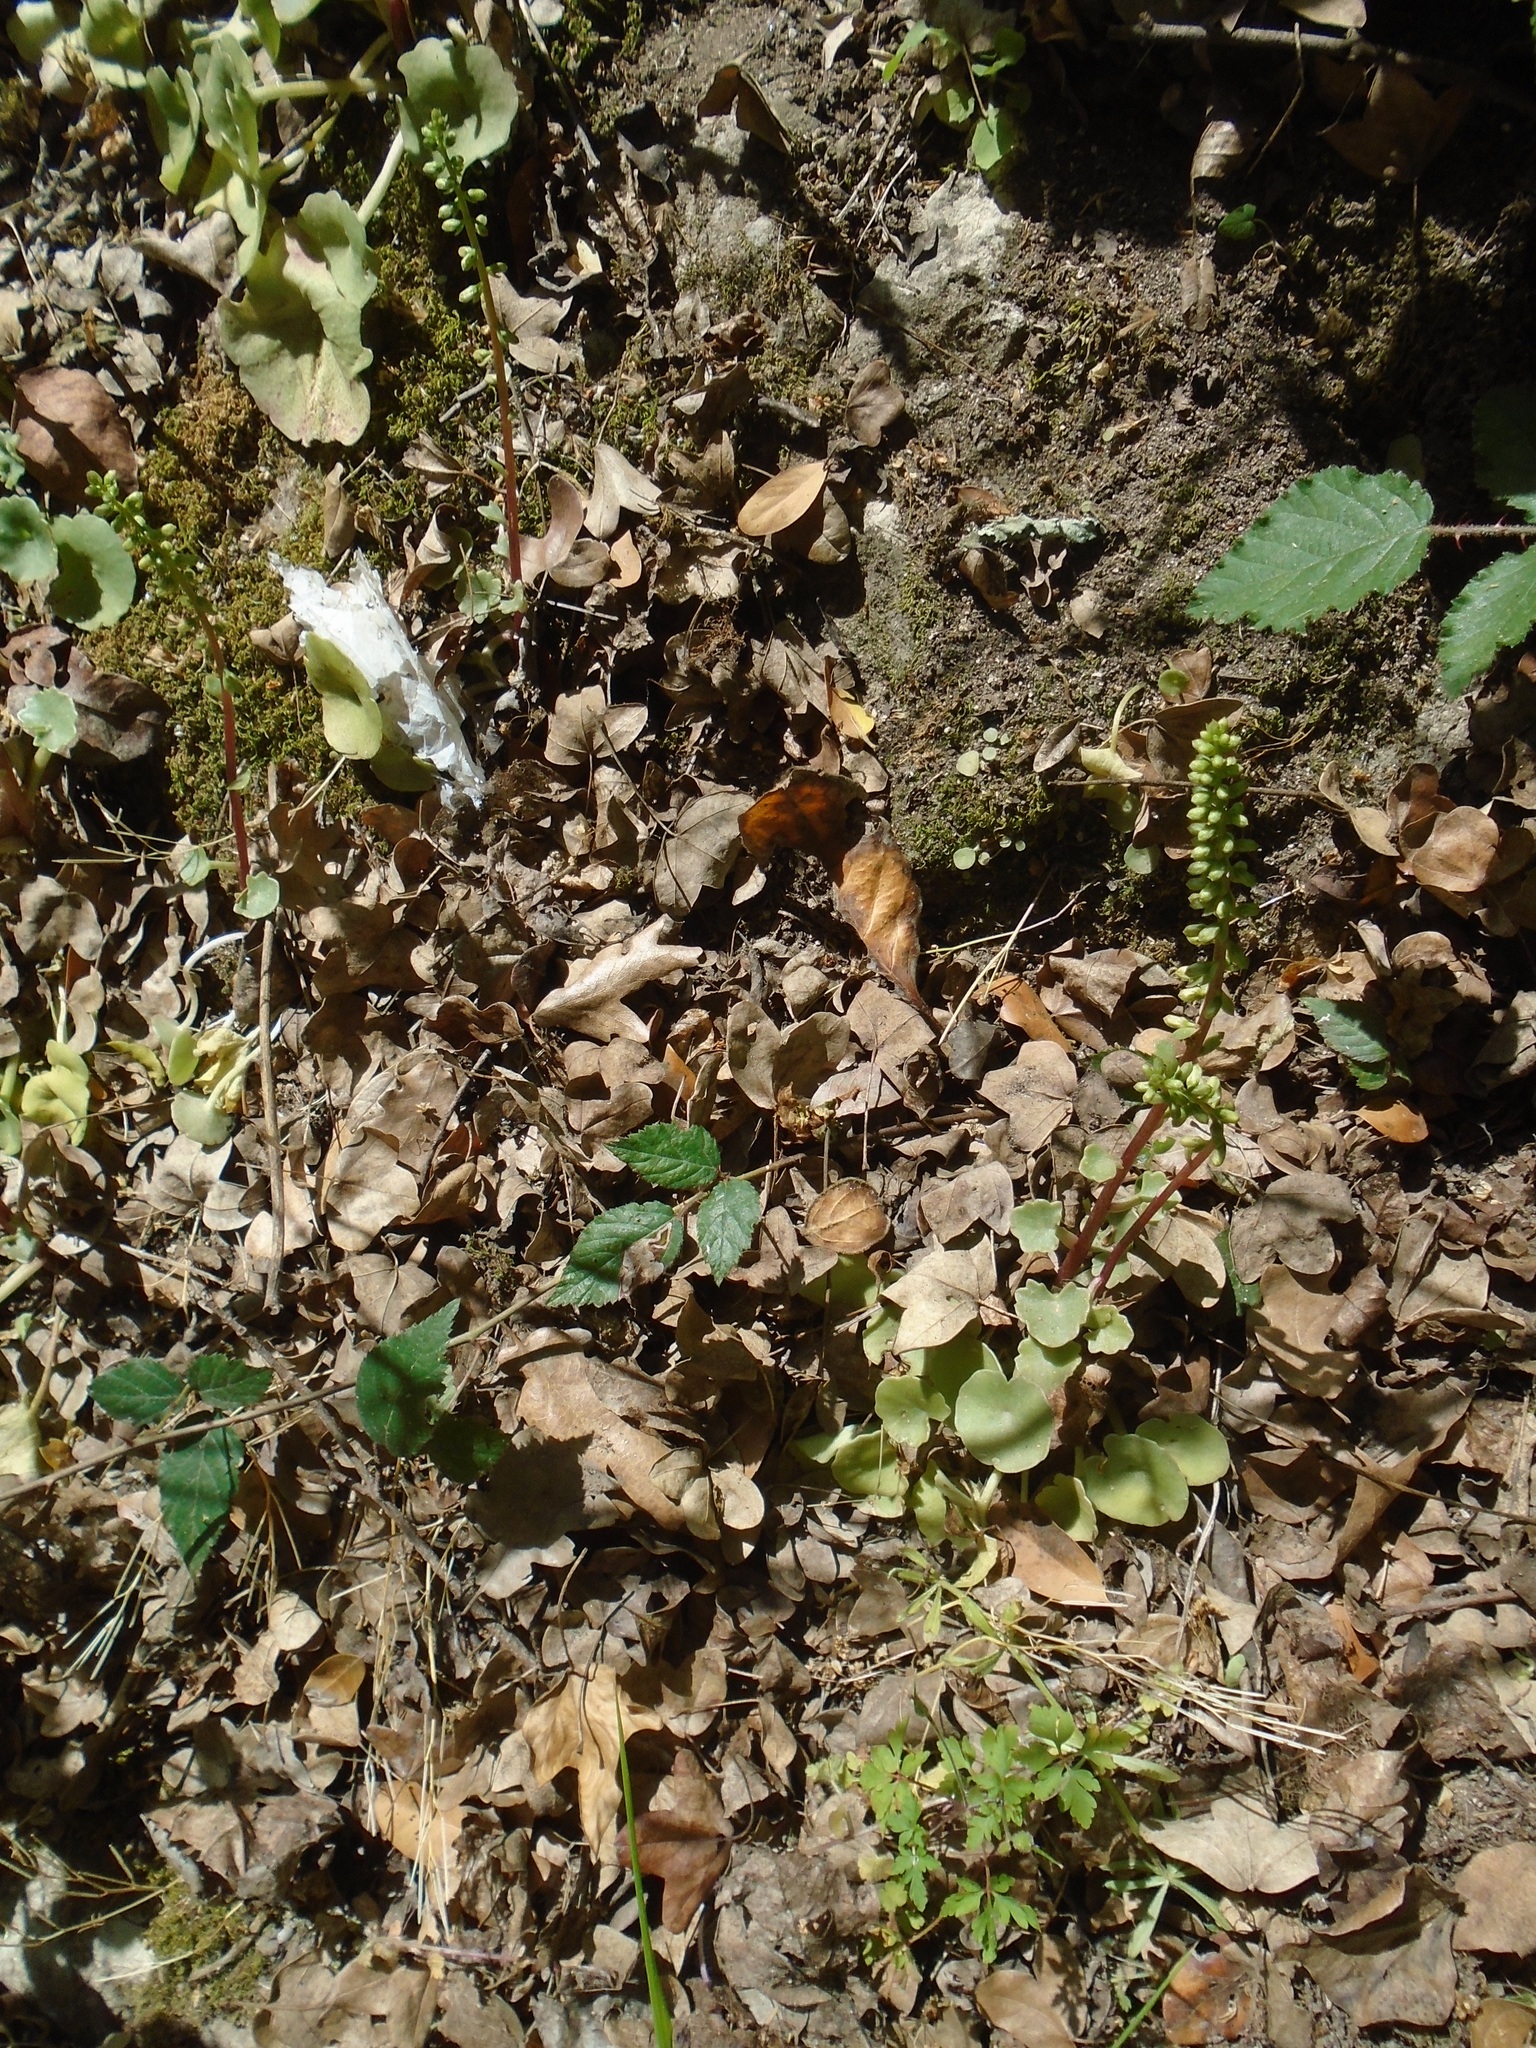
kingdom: Plantae
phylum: Tracheophyta
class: Magnoliopsida
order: Saxifragales
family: Crassulaceae
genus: Umbilicus
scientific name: Umbilicus rupestris
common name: Navelwort
